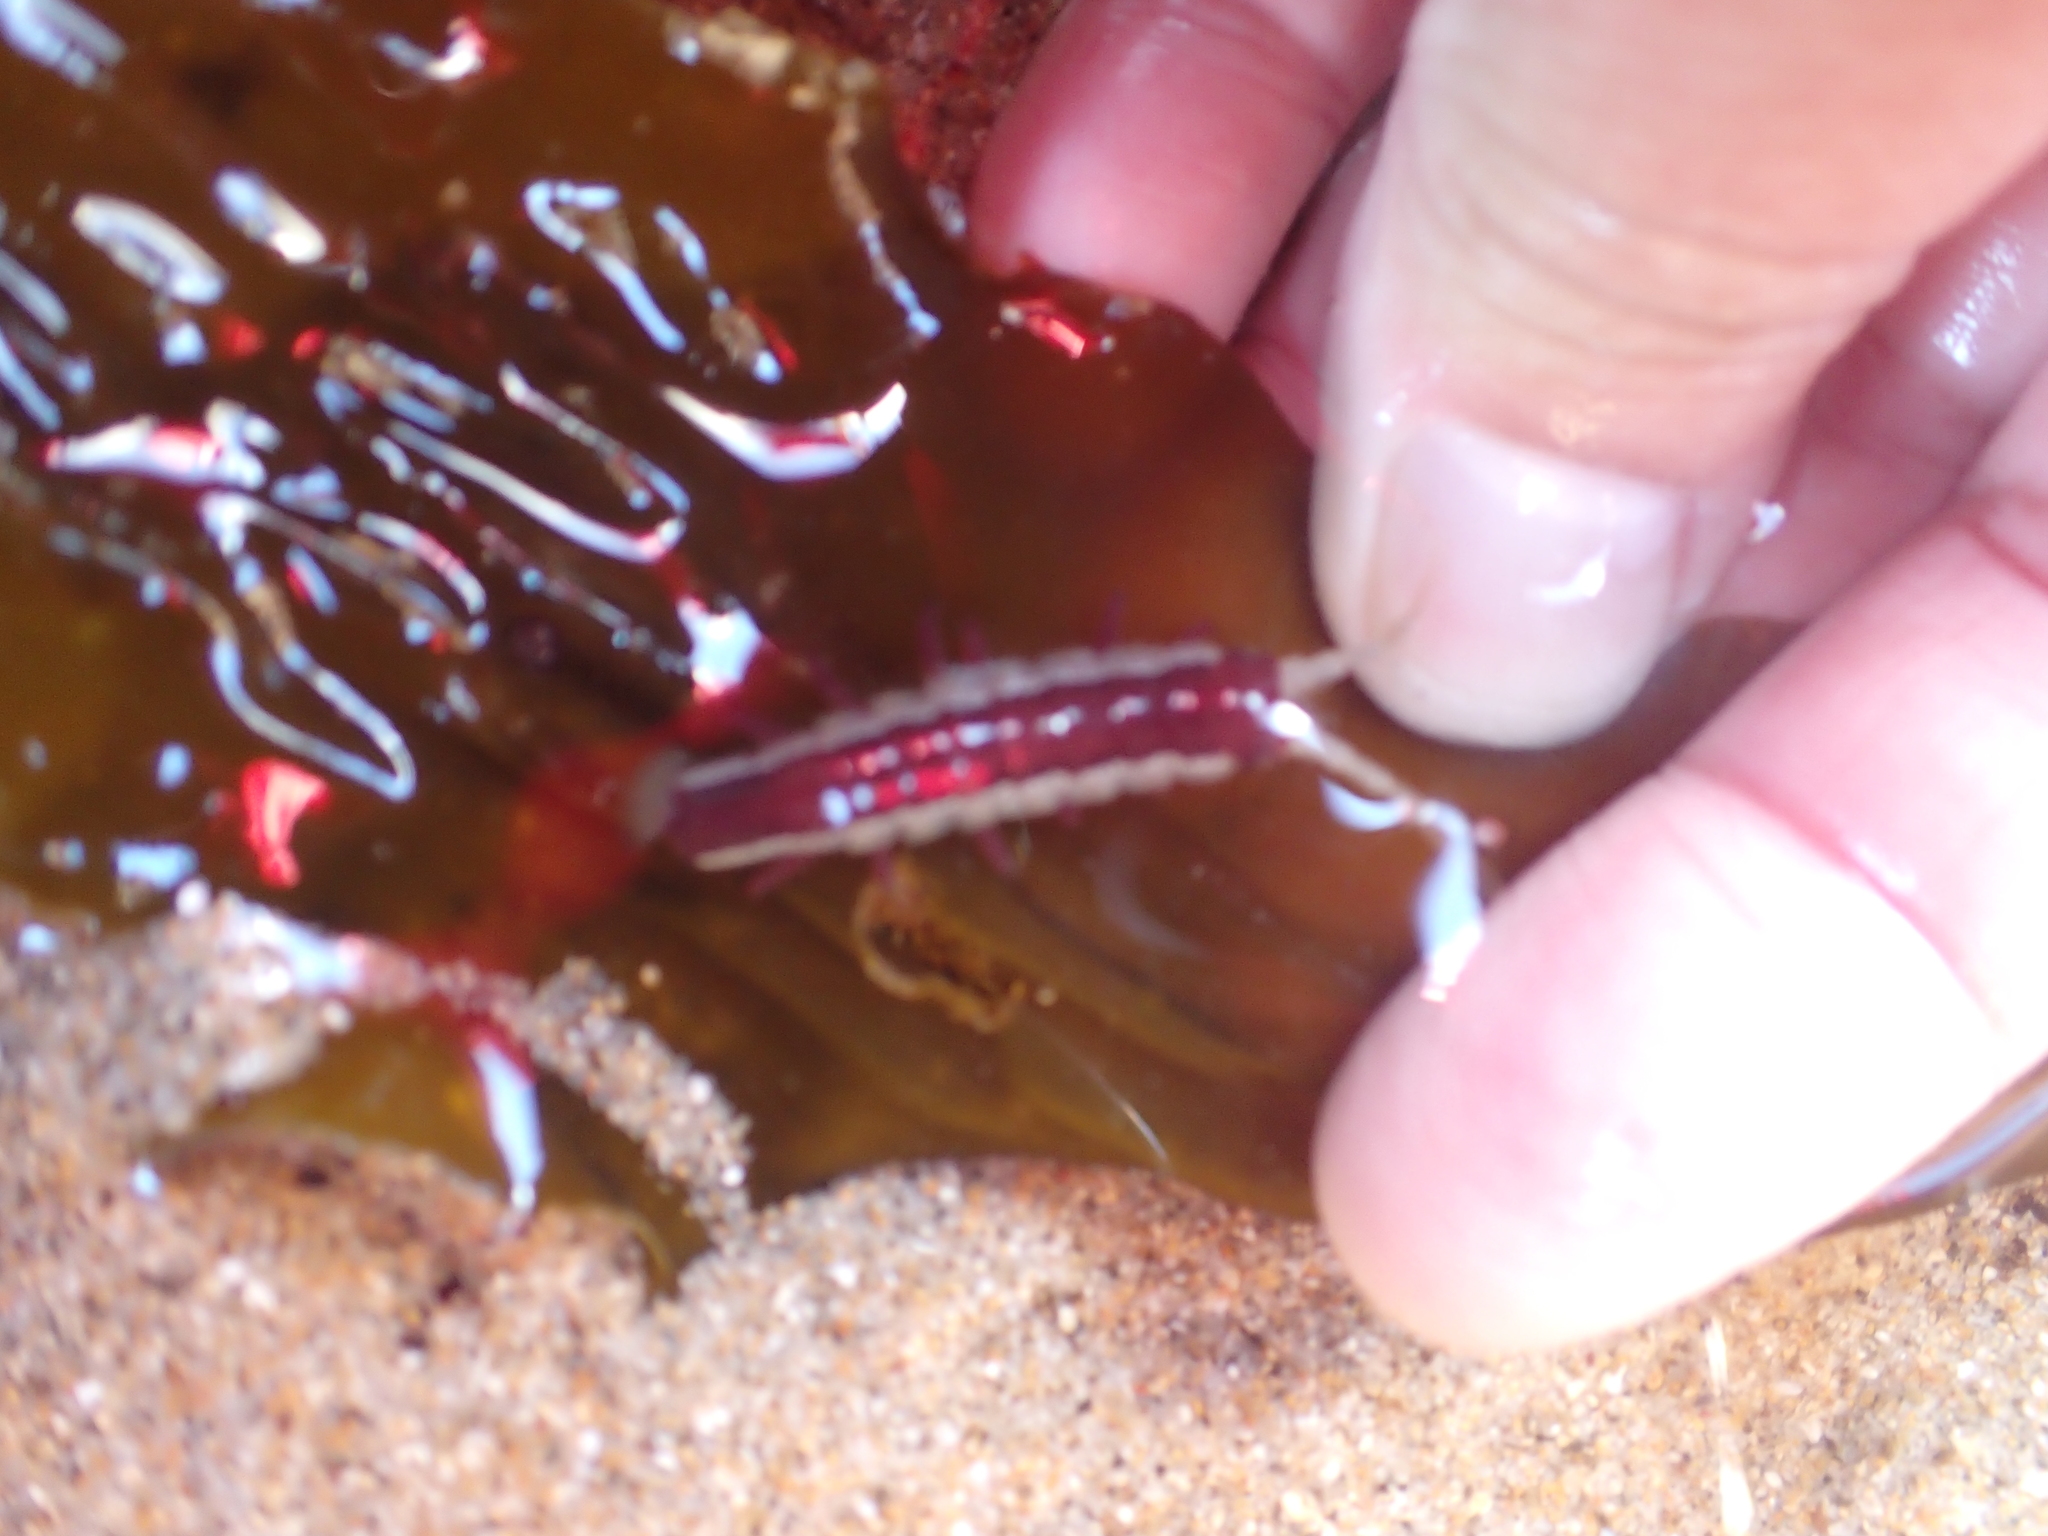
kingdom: Animalia
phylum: Arthropoda
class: Malacostraca
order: Isopoda
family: Idoteidae
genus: Idotea
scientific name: Idotea urotoma
